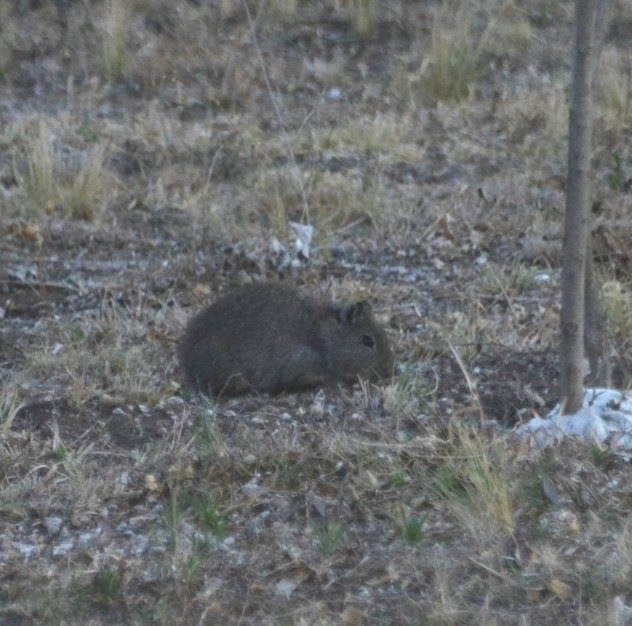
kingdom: Animalia
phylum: Chordata
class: Mammalia
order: Rodentia
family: Caviidae
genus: Cavia
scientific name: Cavia aperea
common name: Brazilian guinea pig
